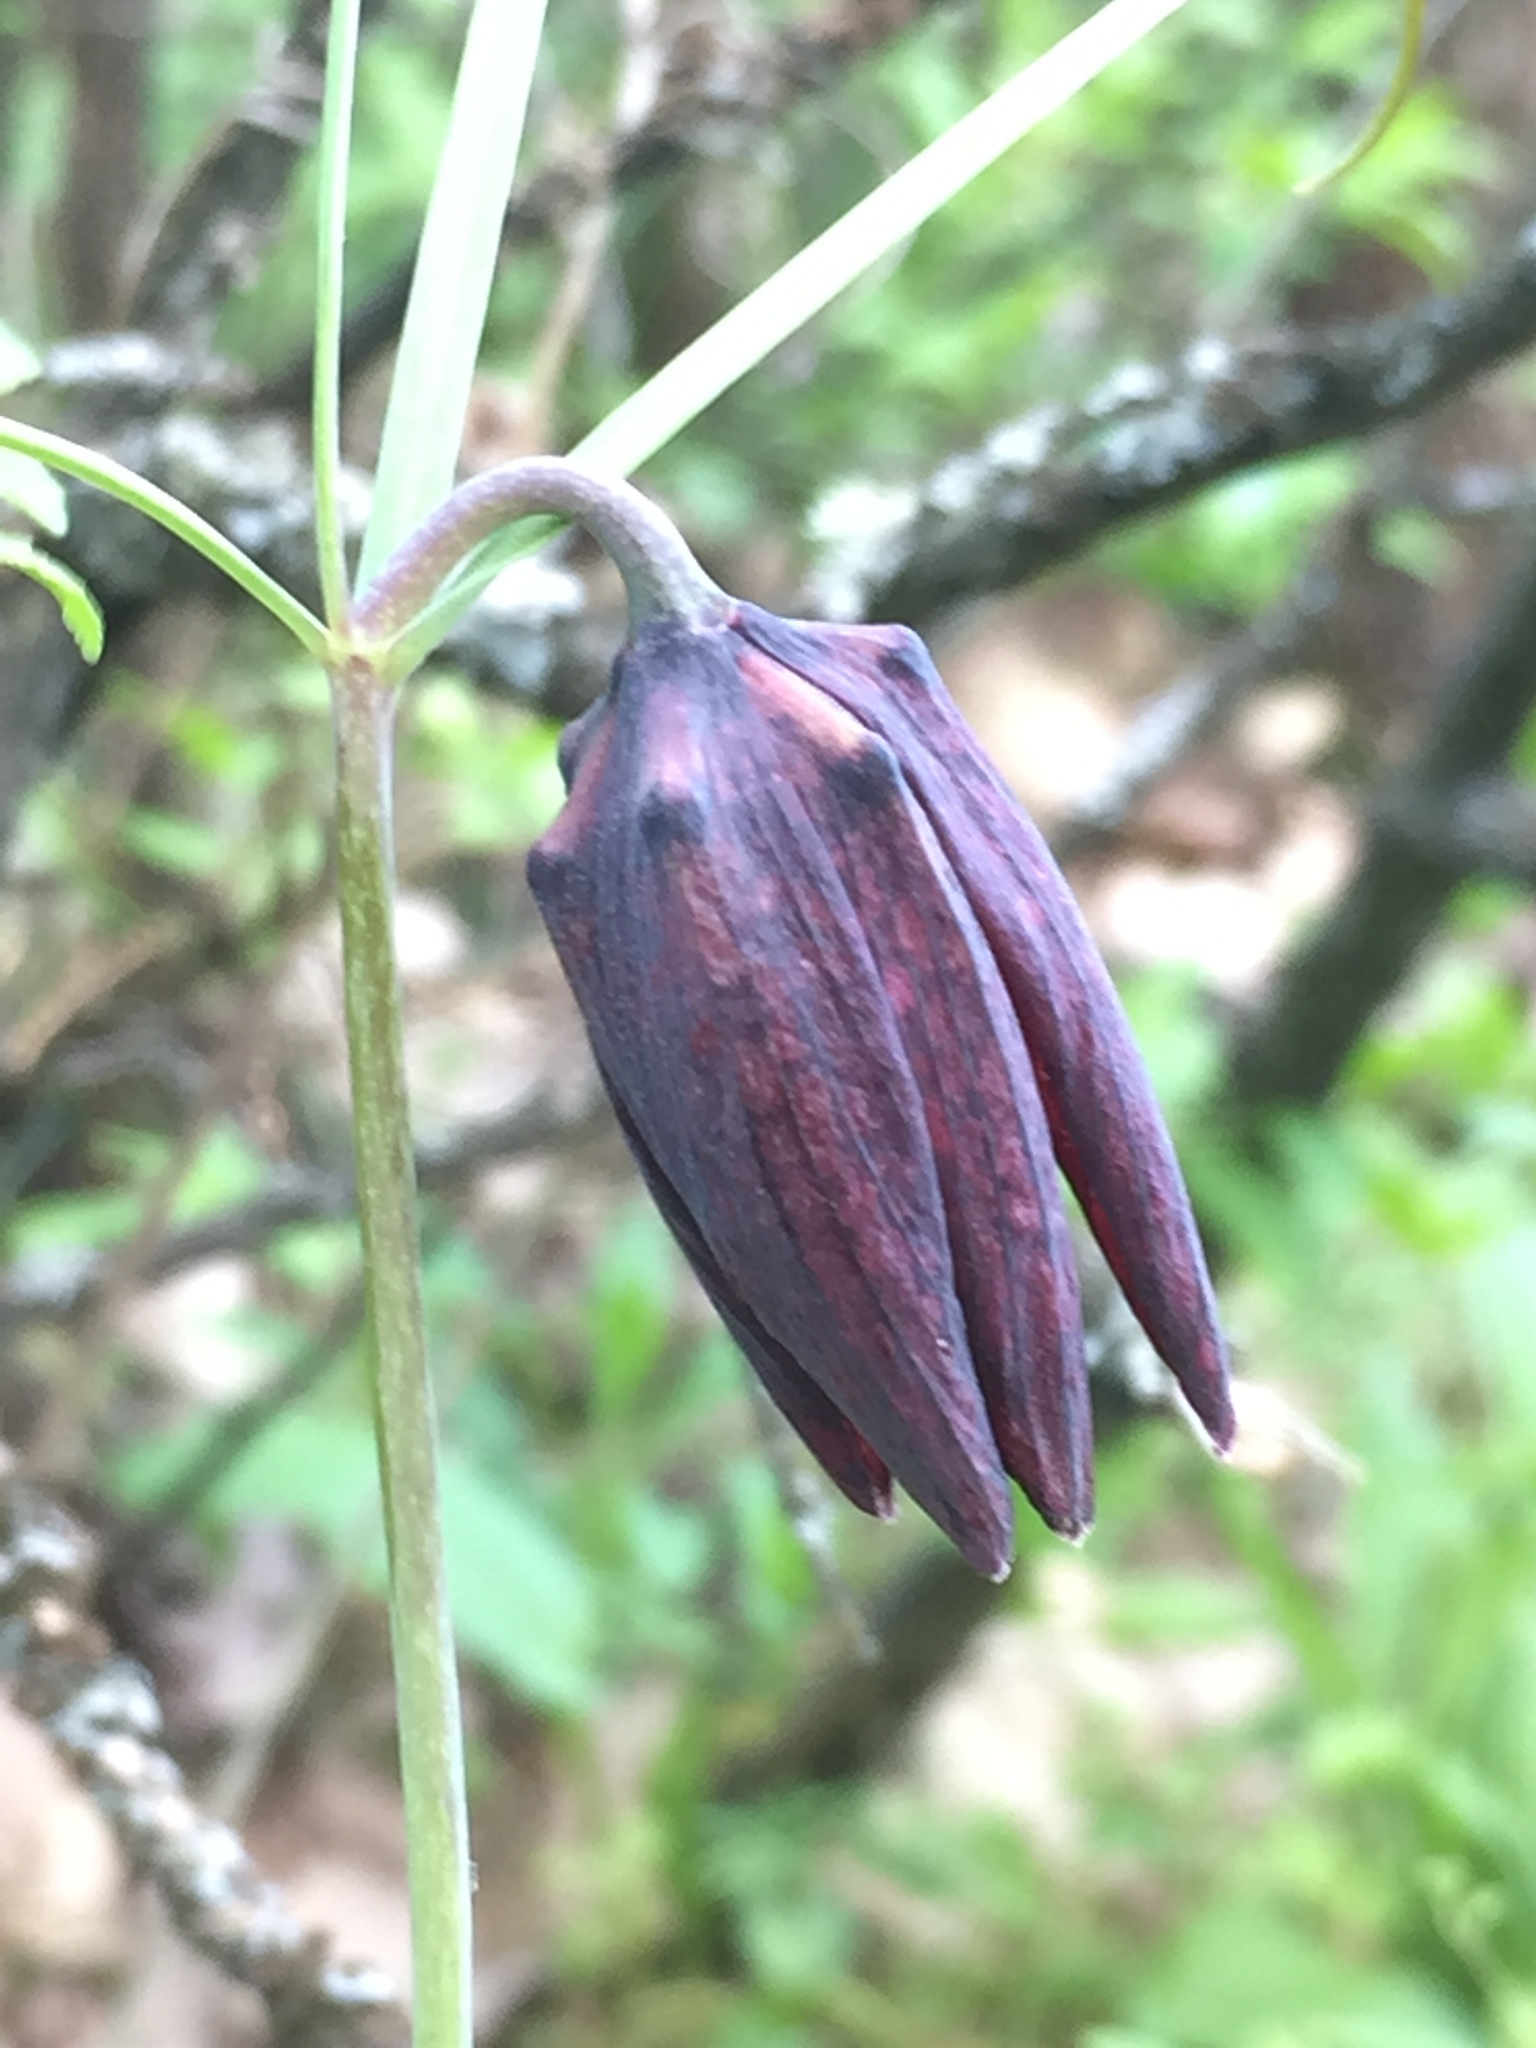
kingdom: Plantae
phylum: Tracheophyta
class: Liliopsida
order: Liliales
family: Liliaceae
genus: Fritillaria
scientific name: Fritillaria ruthenica
